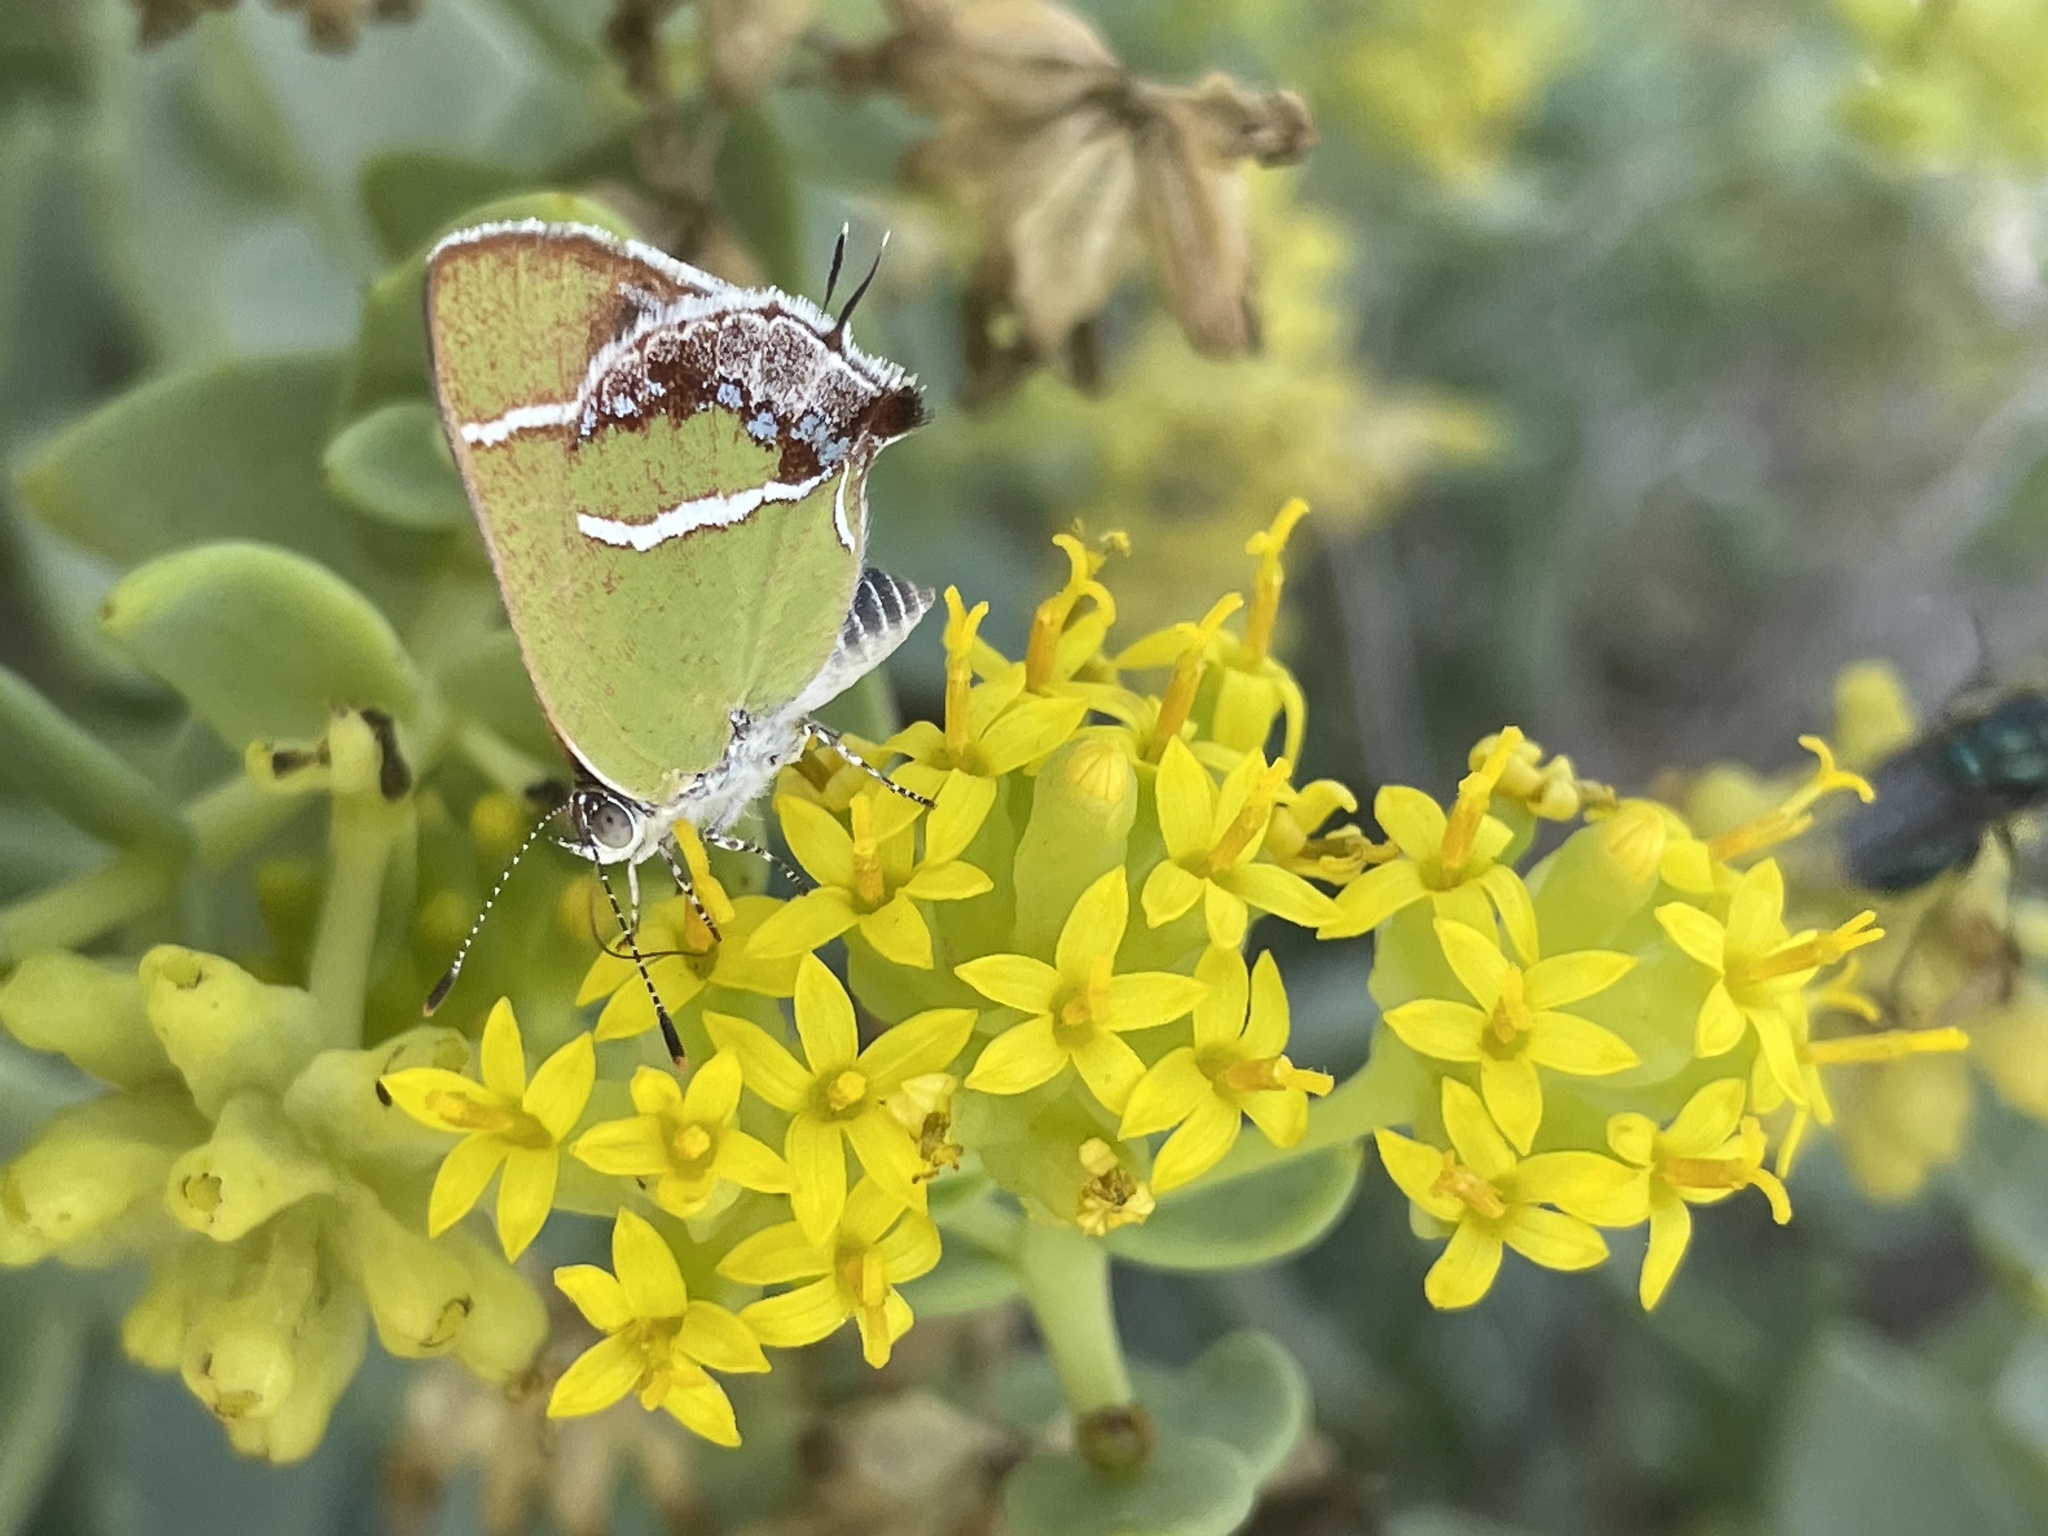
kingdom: Animalia
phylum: Arthropoda
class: Insecta
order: Lepidoptera
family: Lycaenidae
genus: Chlorostrymon
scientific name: Chlorostrymon simaethis
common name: Silver-banded hairstreak
